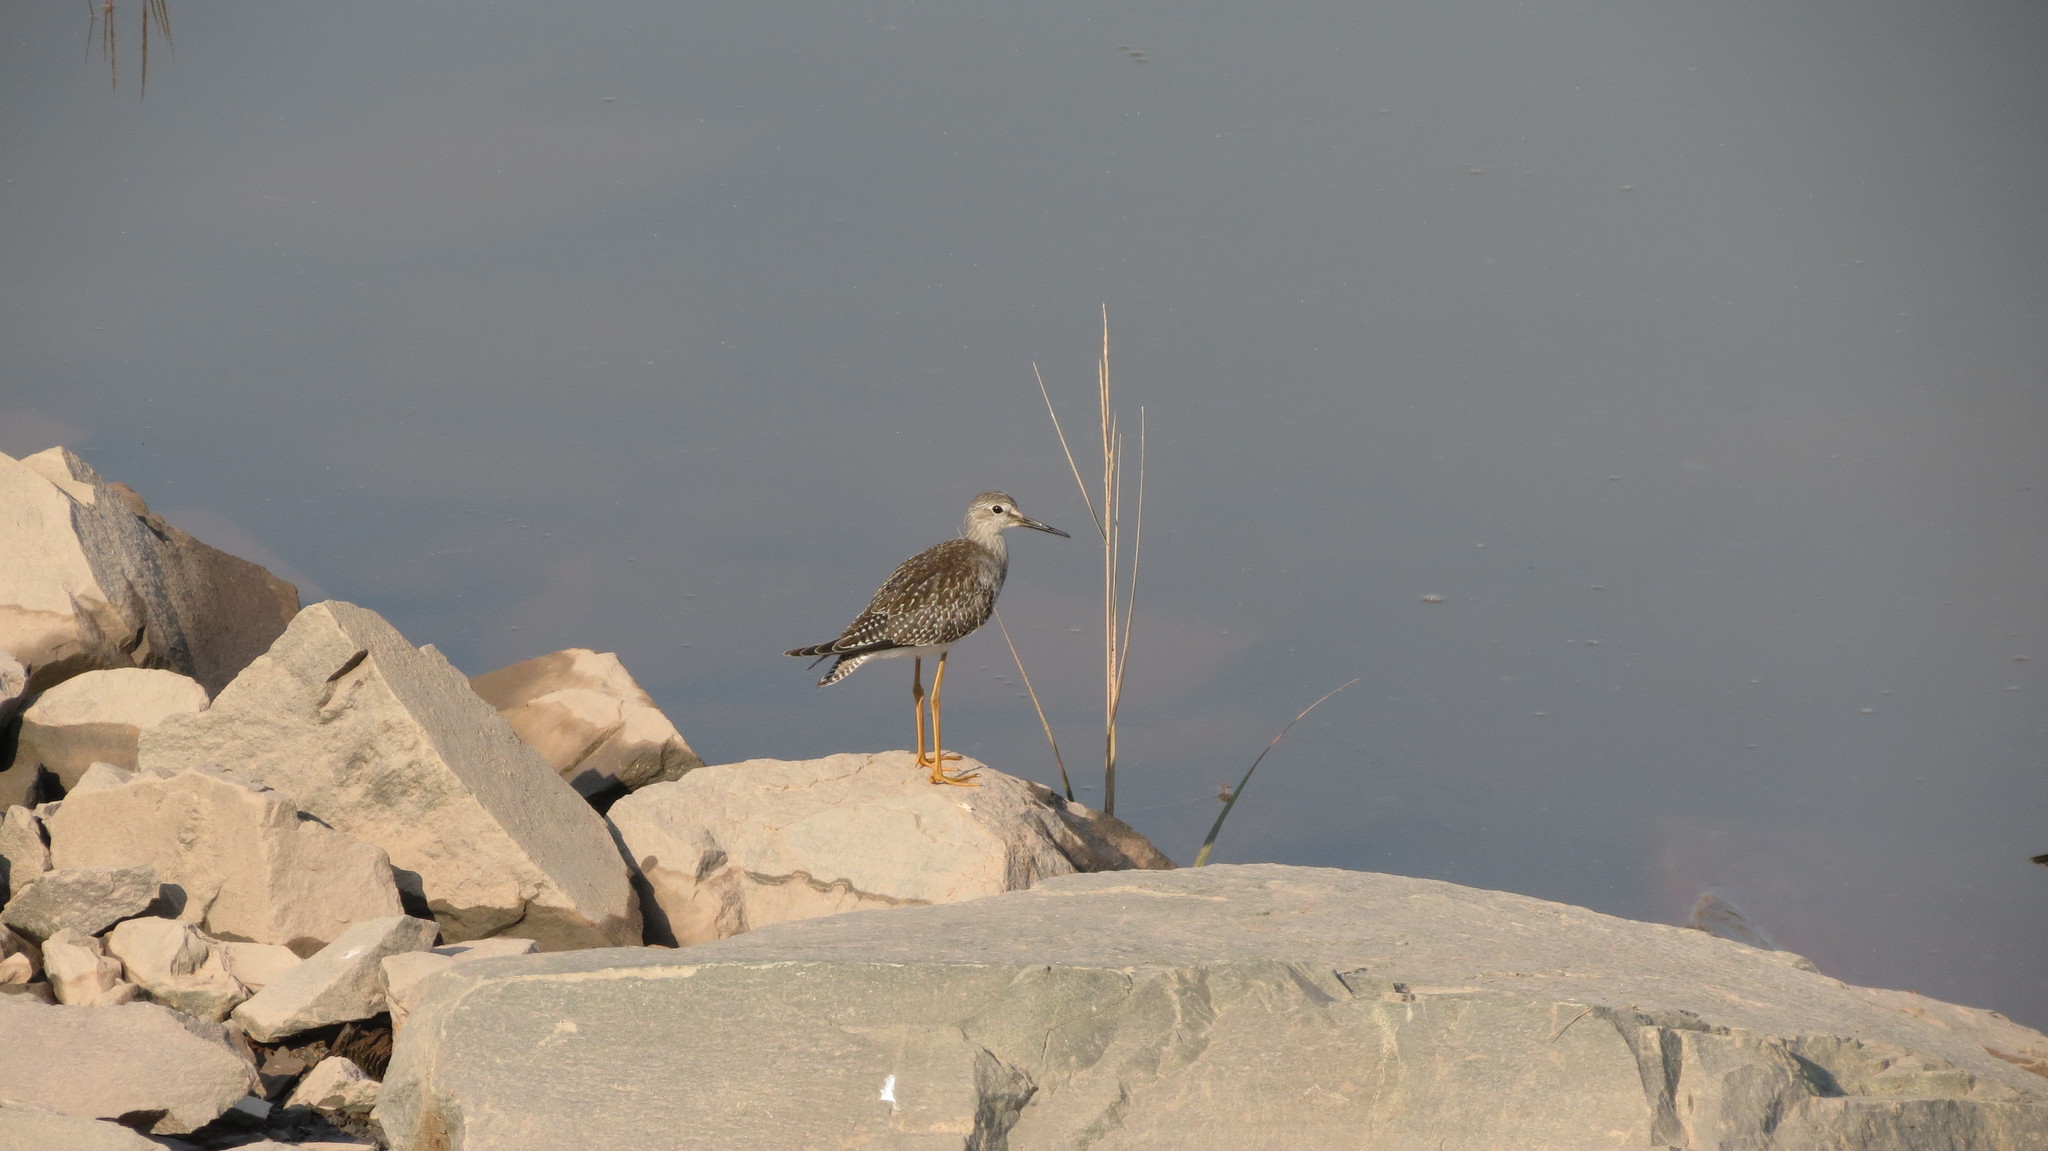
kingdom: Animalia
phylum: Chordata
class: Aves
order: Charadriiformes
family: Scolopacidae
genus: Tringa
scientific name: Tringa flavipes
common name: Lesser yellowlegs
